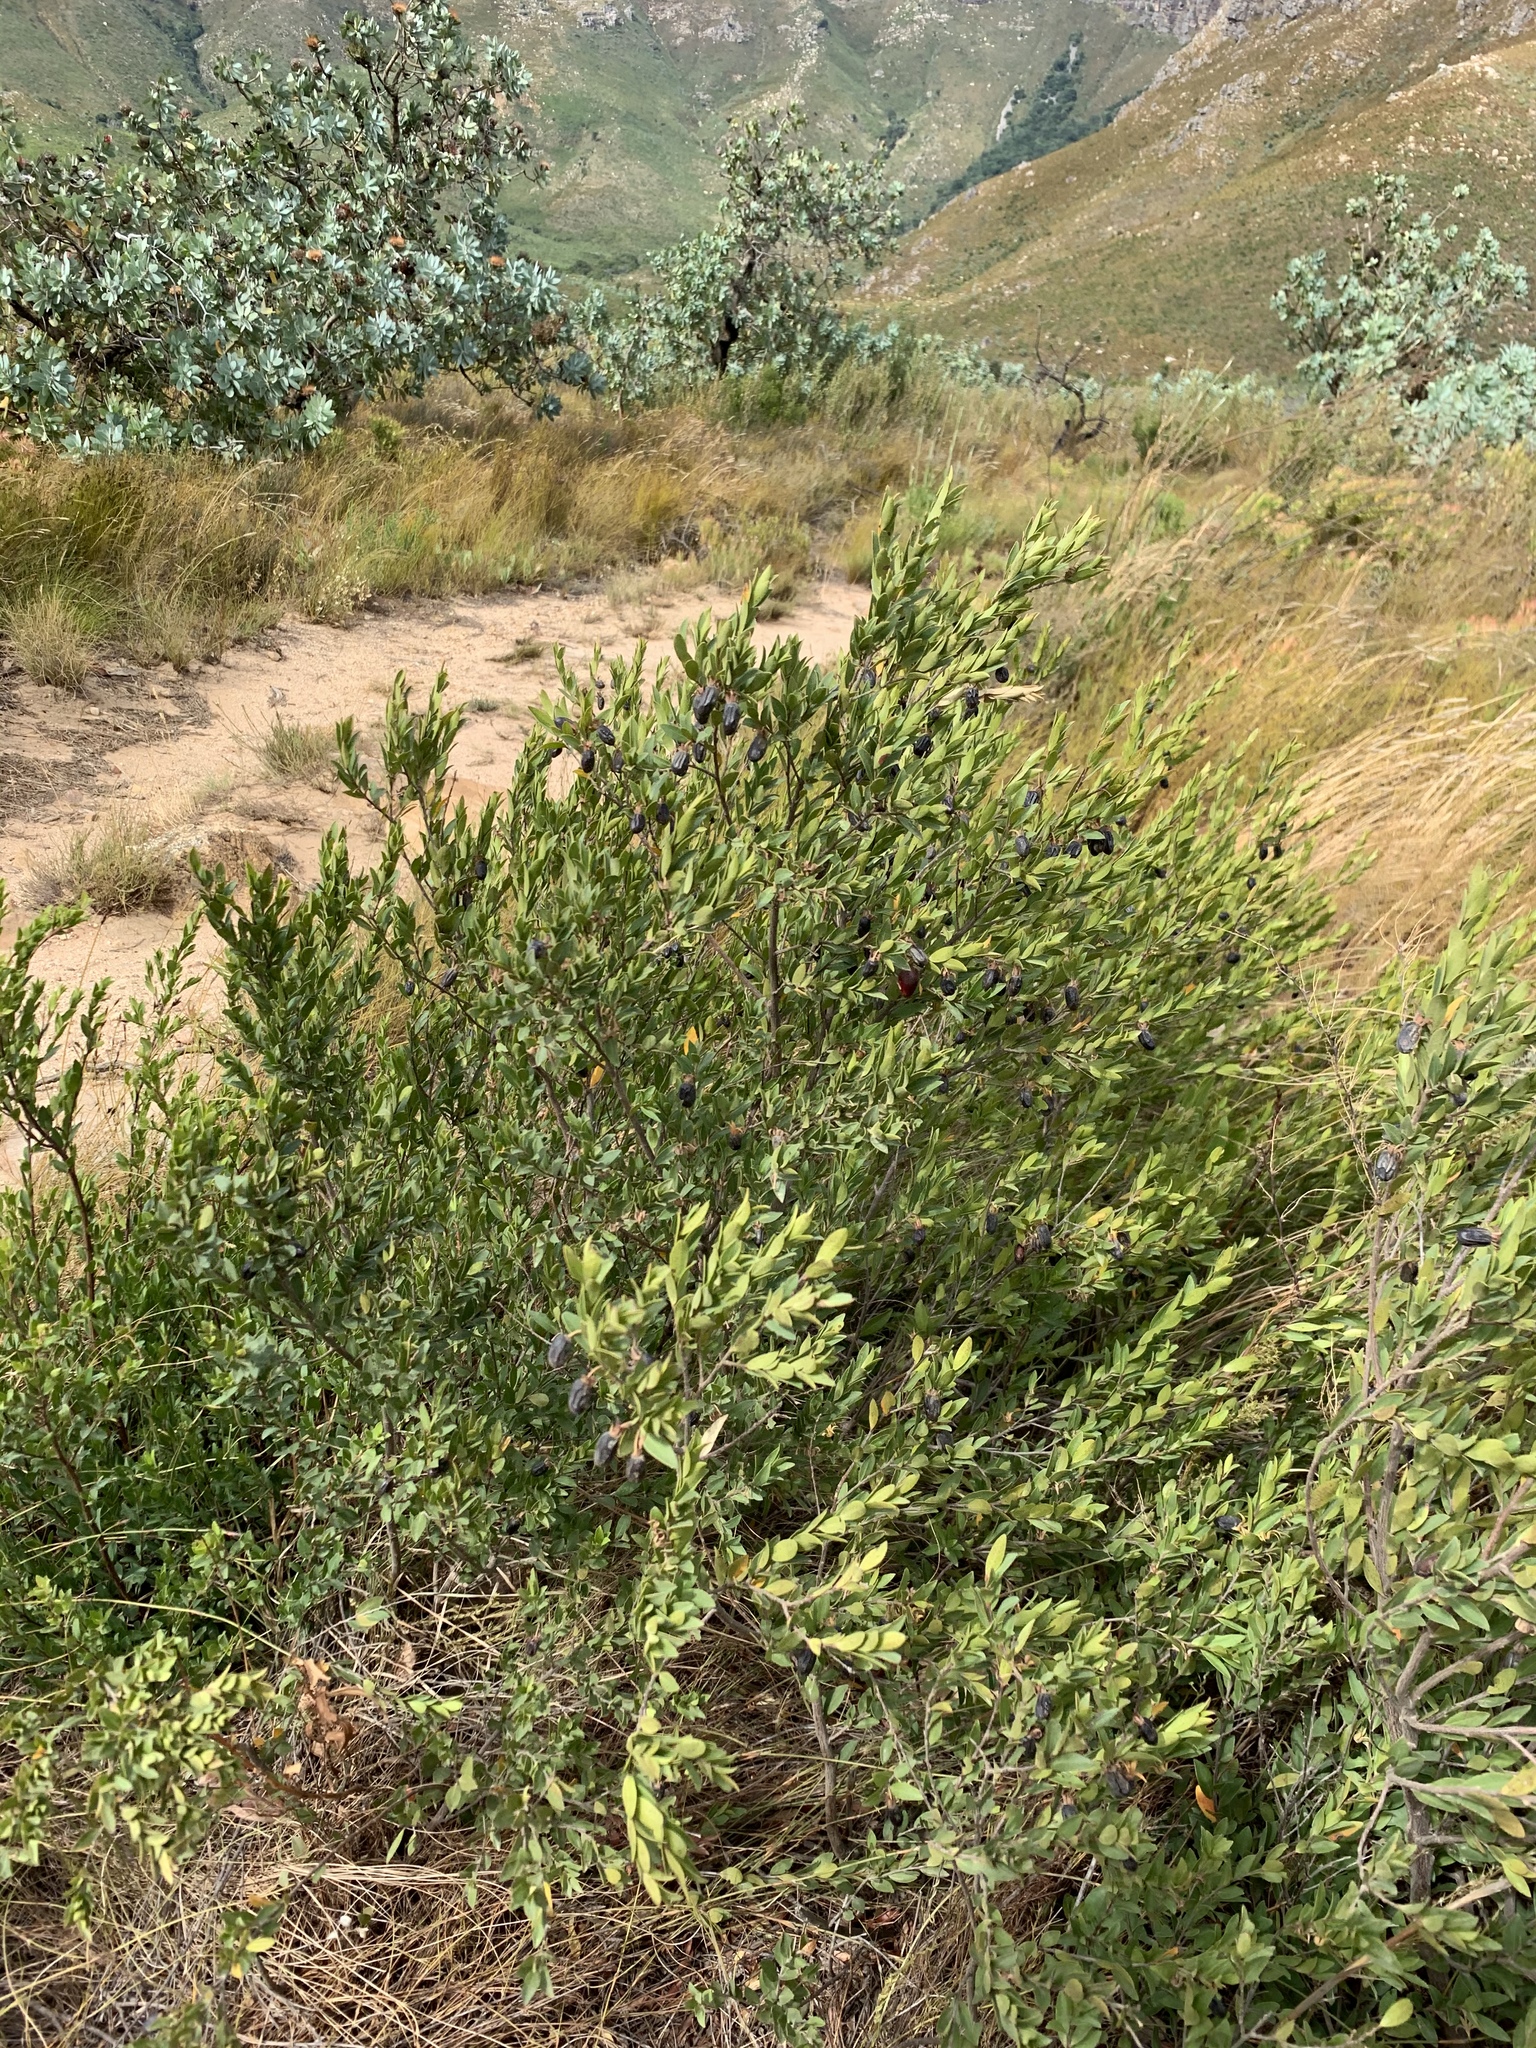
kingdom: Plantae
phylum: Tracheophyta
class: Magnoliopsida
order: Ericales
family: Ebenaceae
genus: Diospyros
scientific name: Diospyros glabra
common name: Fynbos star apple
